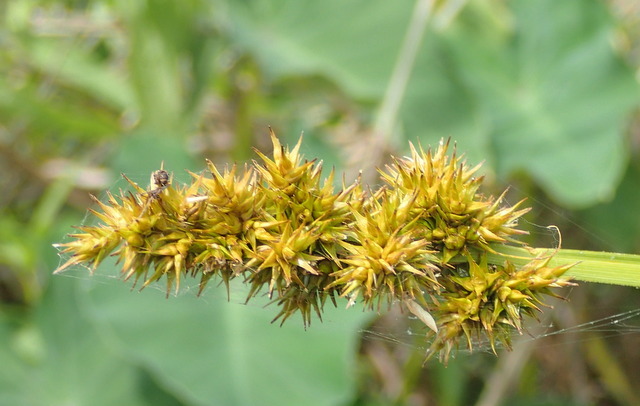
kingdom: Plantae
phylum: Tracheophyta
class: Liliopsida
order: Poales
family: Cyperaceae
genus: Carex
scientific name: Carex stipata
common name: Awl-fruited sedge
